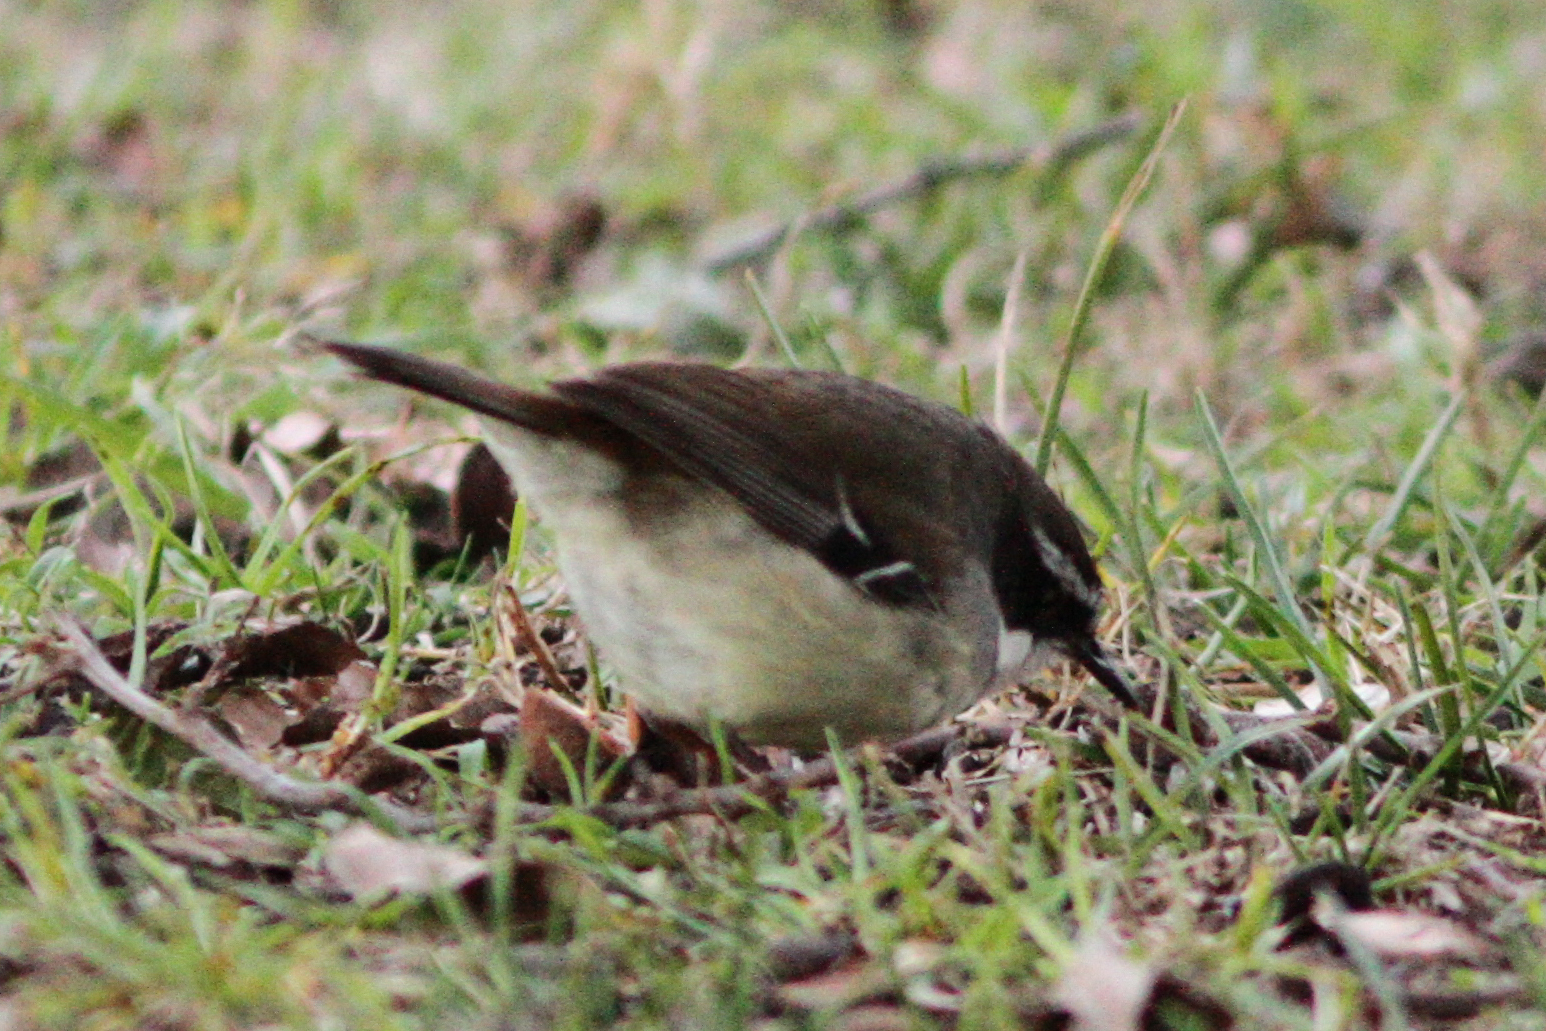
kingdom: Animalia
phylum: Chordata
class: Aves
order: Passeriformes
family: Acanthizidae
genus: Sericornis
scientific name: Sericornis frontalis
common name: White-browed scrubwren
